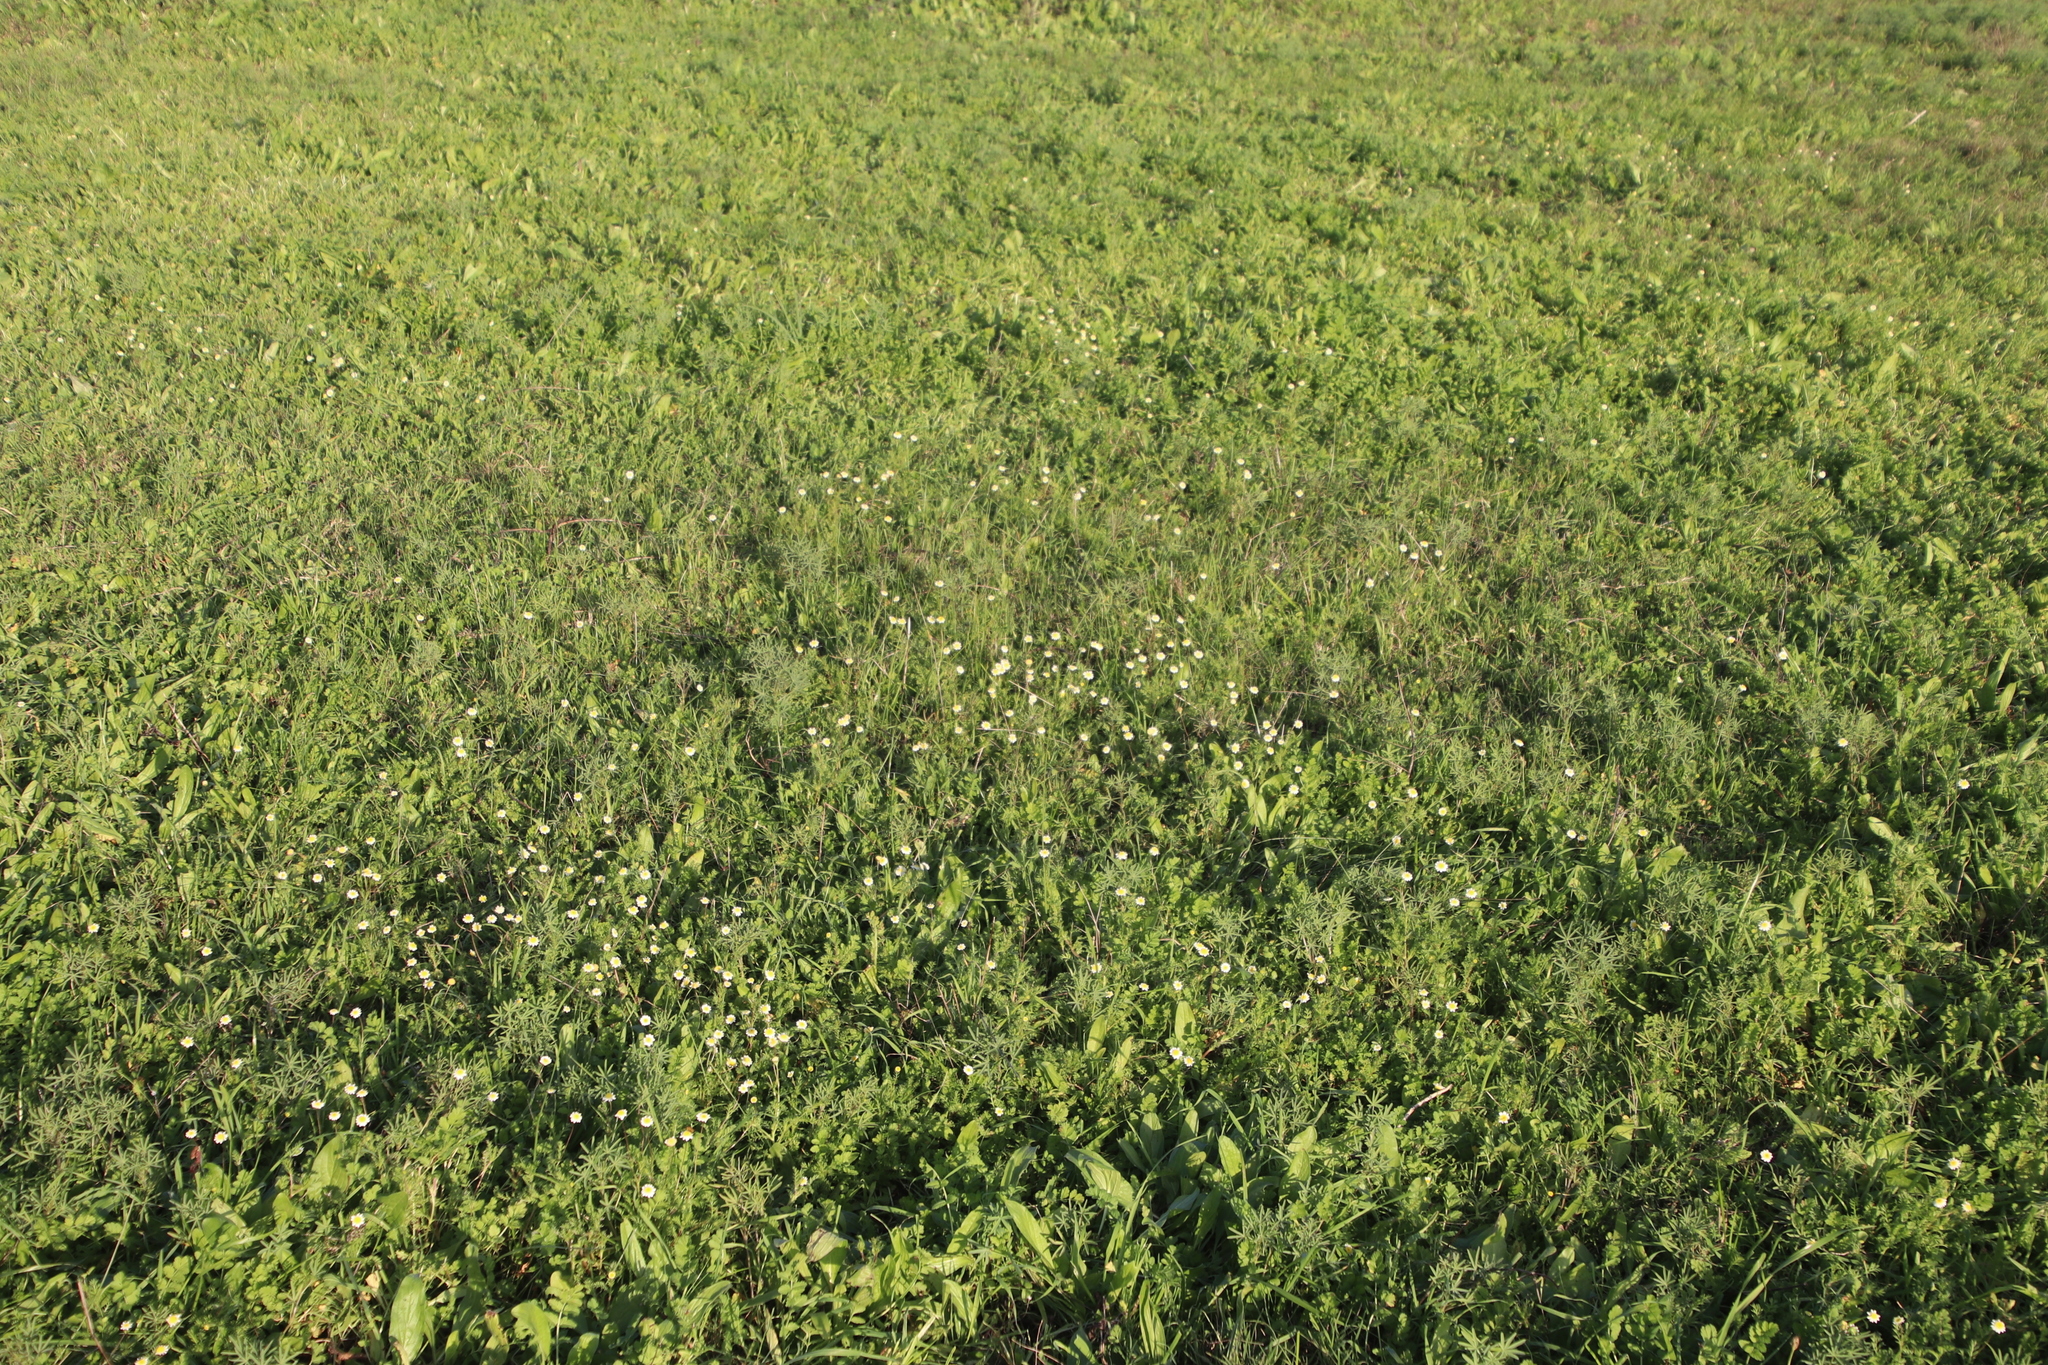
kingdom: Plantae
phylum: Tracheophyta
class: Magnoliopsida
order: Asterales
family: Asteraceae
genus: Cotula
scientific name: Cotula turbinata
